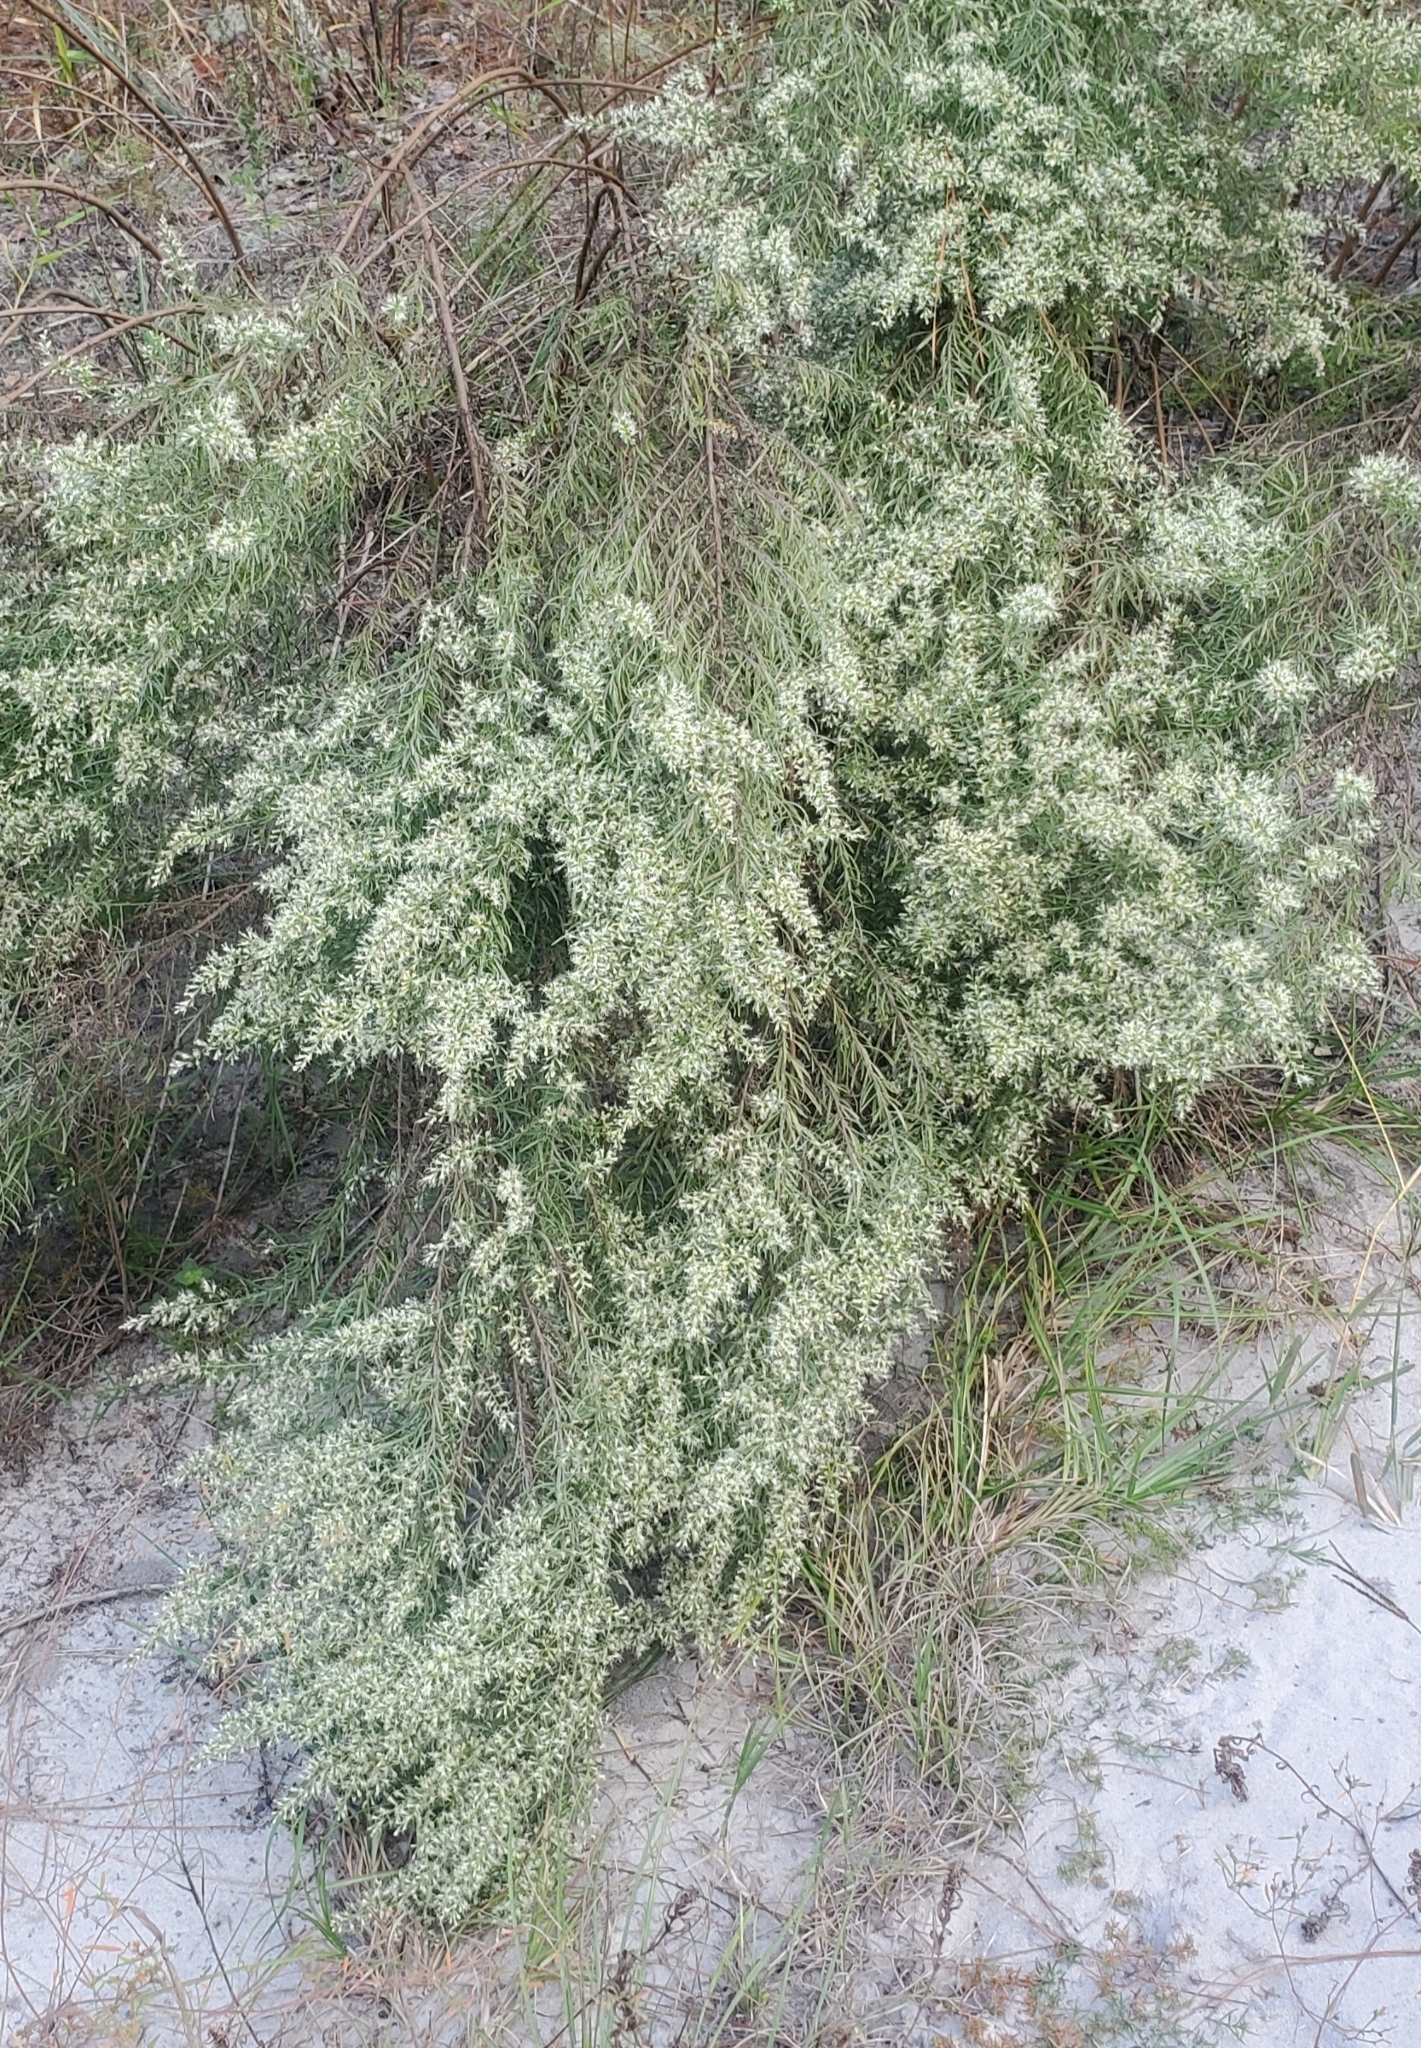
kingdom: Plantae
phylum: Tracheophyta
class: Magnoliopsida
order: Asterales
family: Asteraceae
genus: Eupatorium
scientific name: Eupatorium compositifolium
